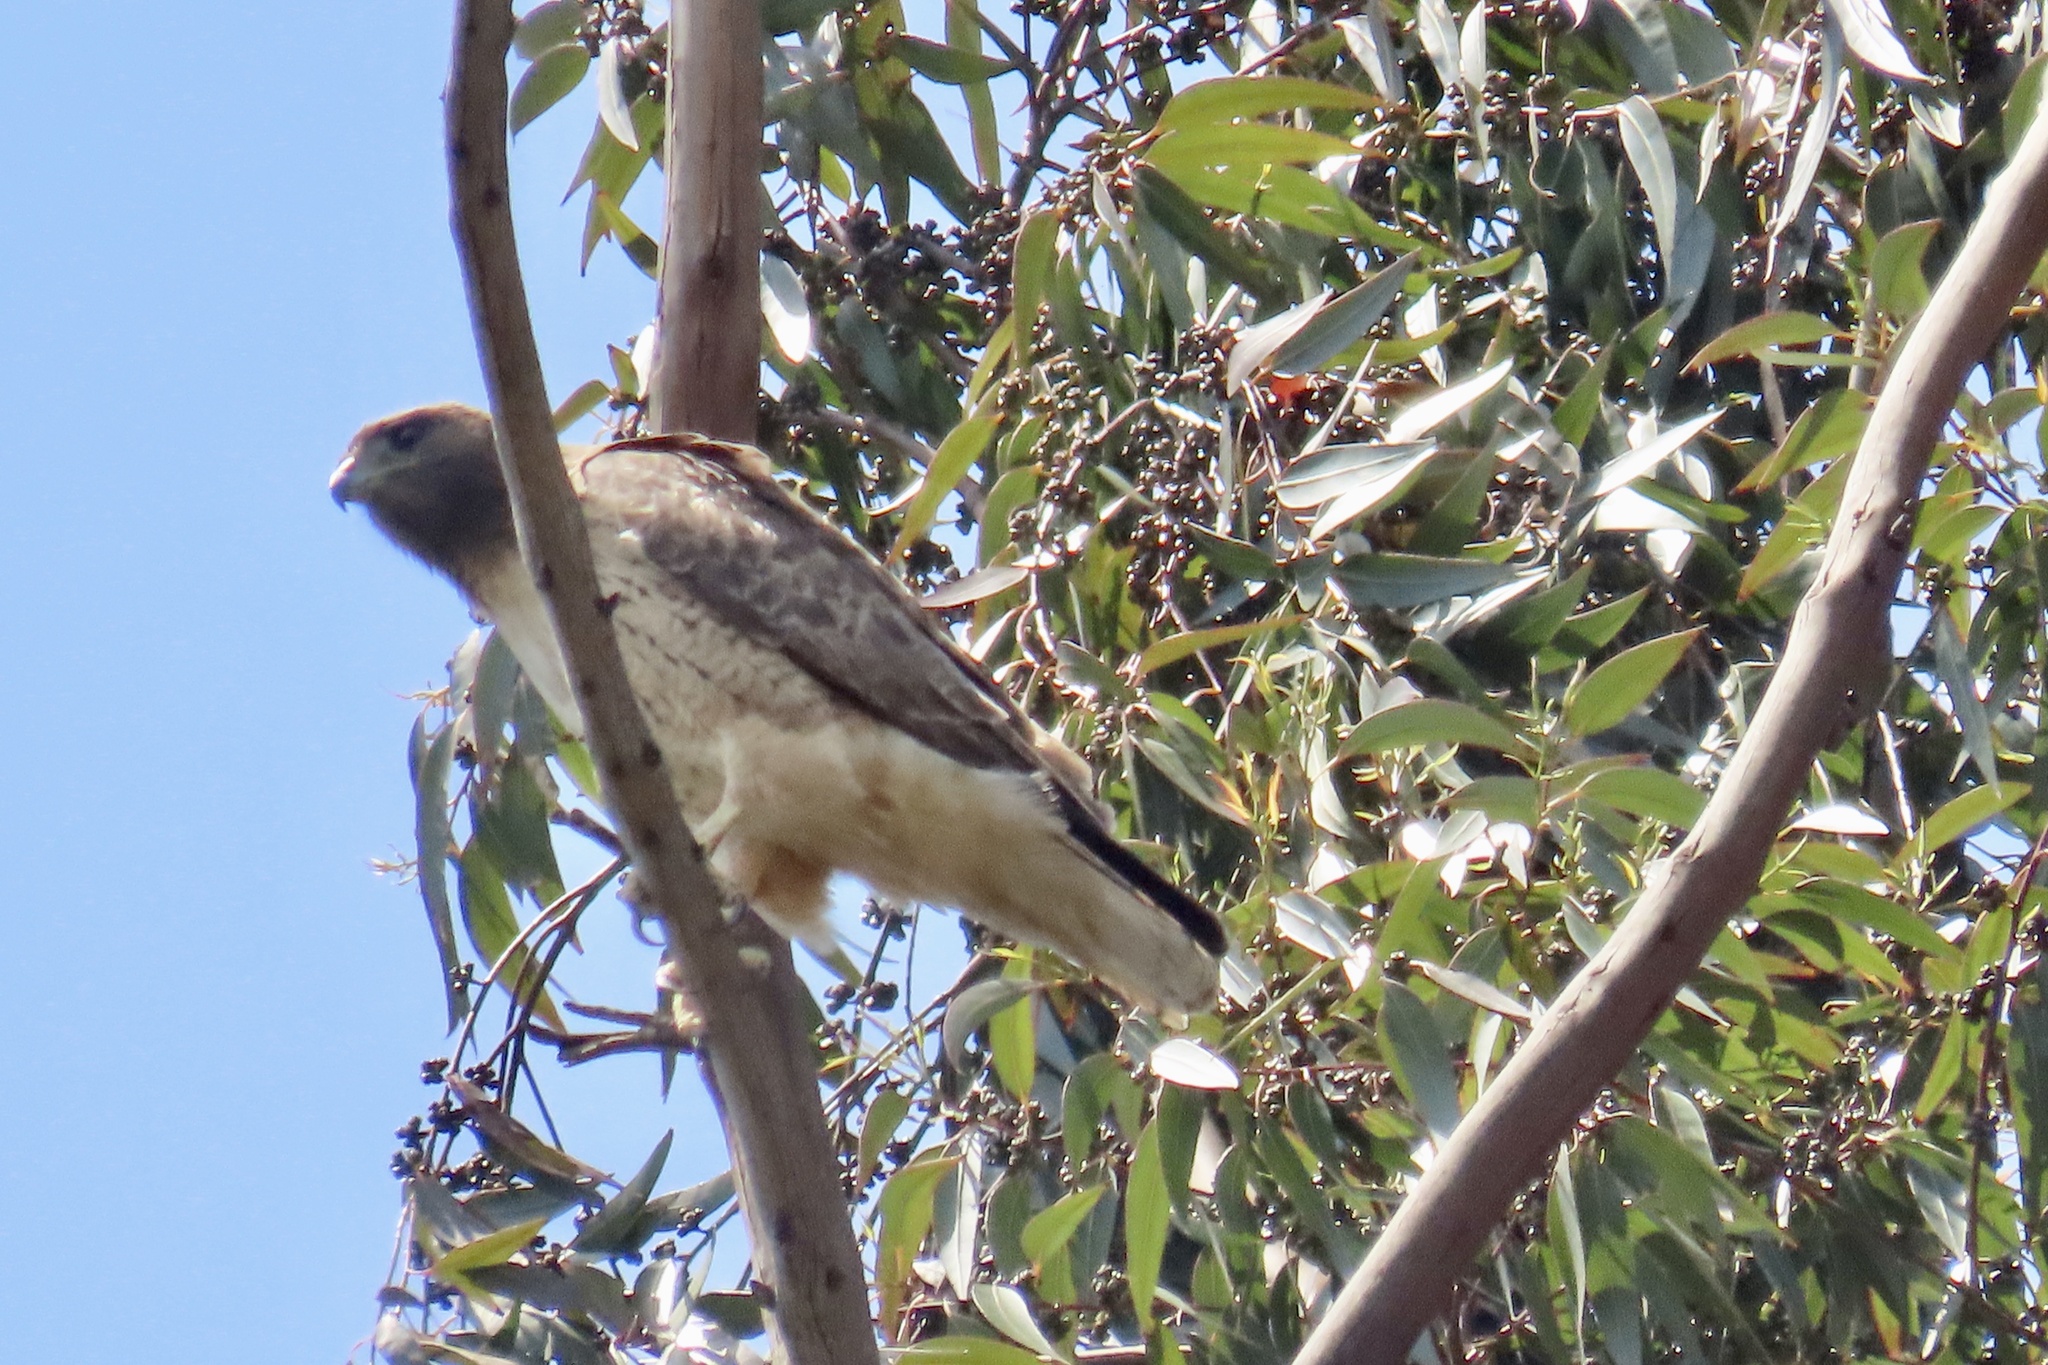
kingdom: Animalia
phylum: Chordata
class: Aves
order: Accipitriformes
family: Accipitridae
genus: Buteo
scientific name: Buteo jamaicensis
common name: Red-tailed hawk
